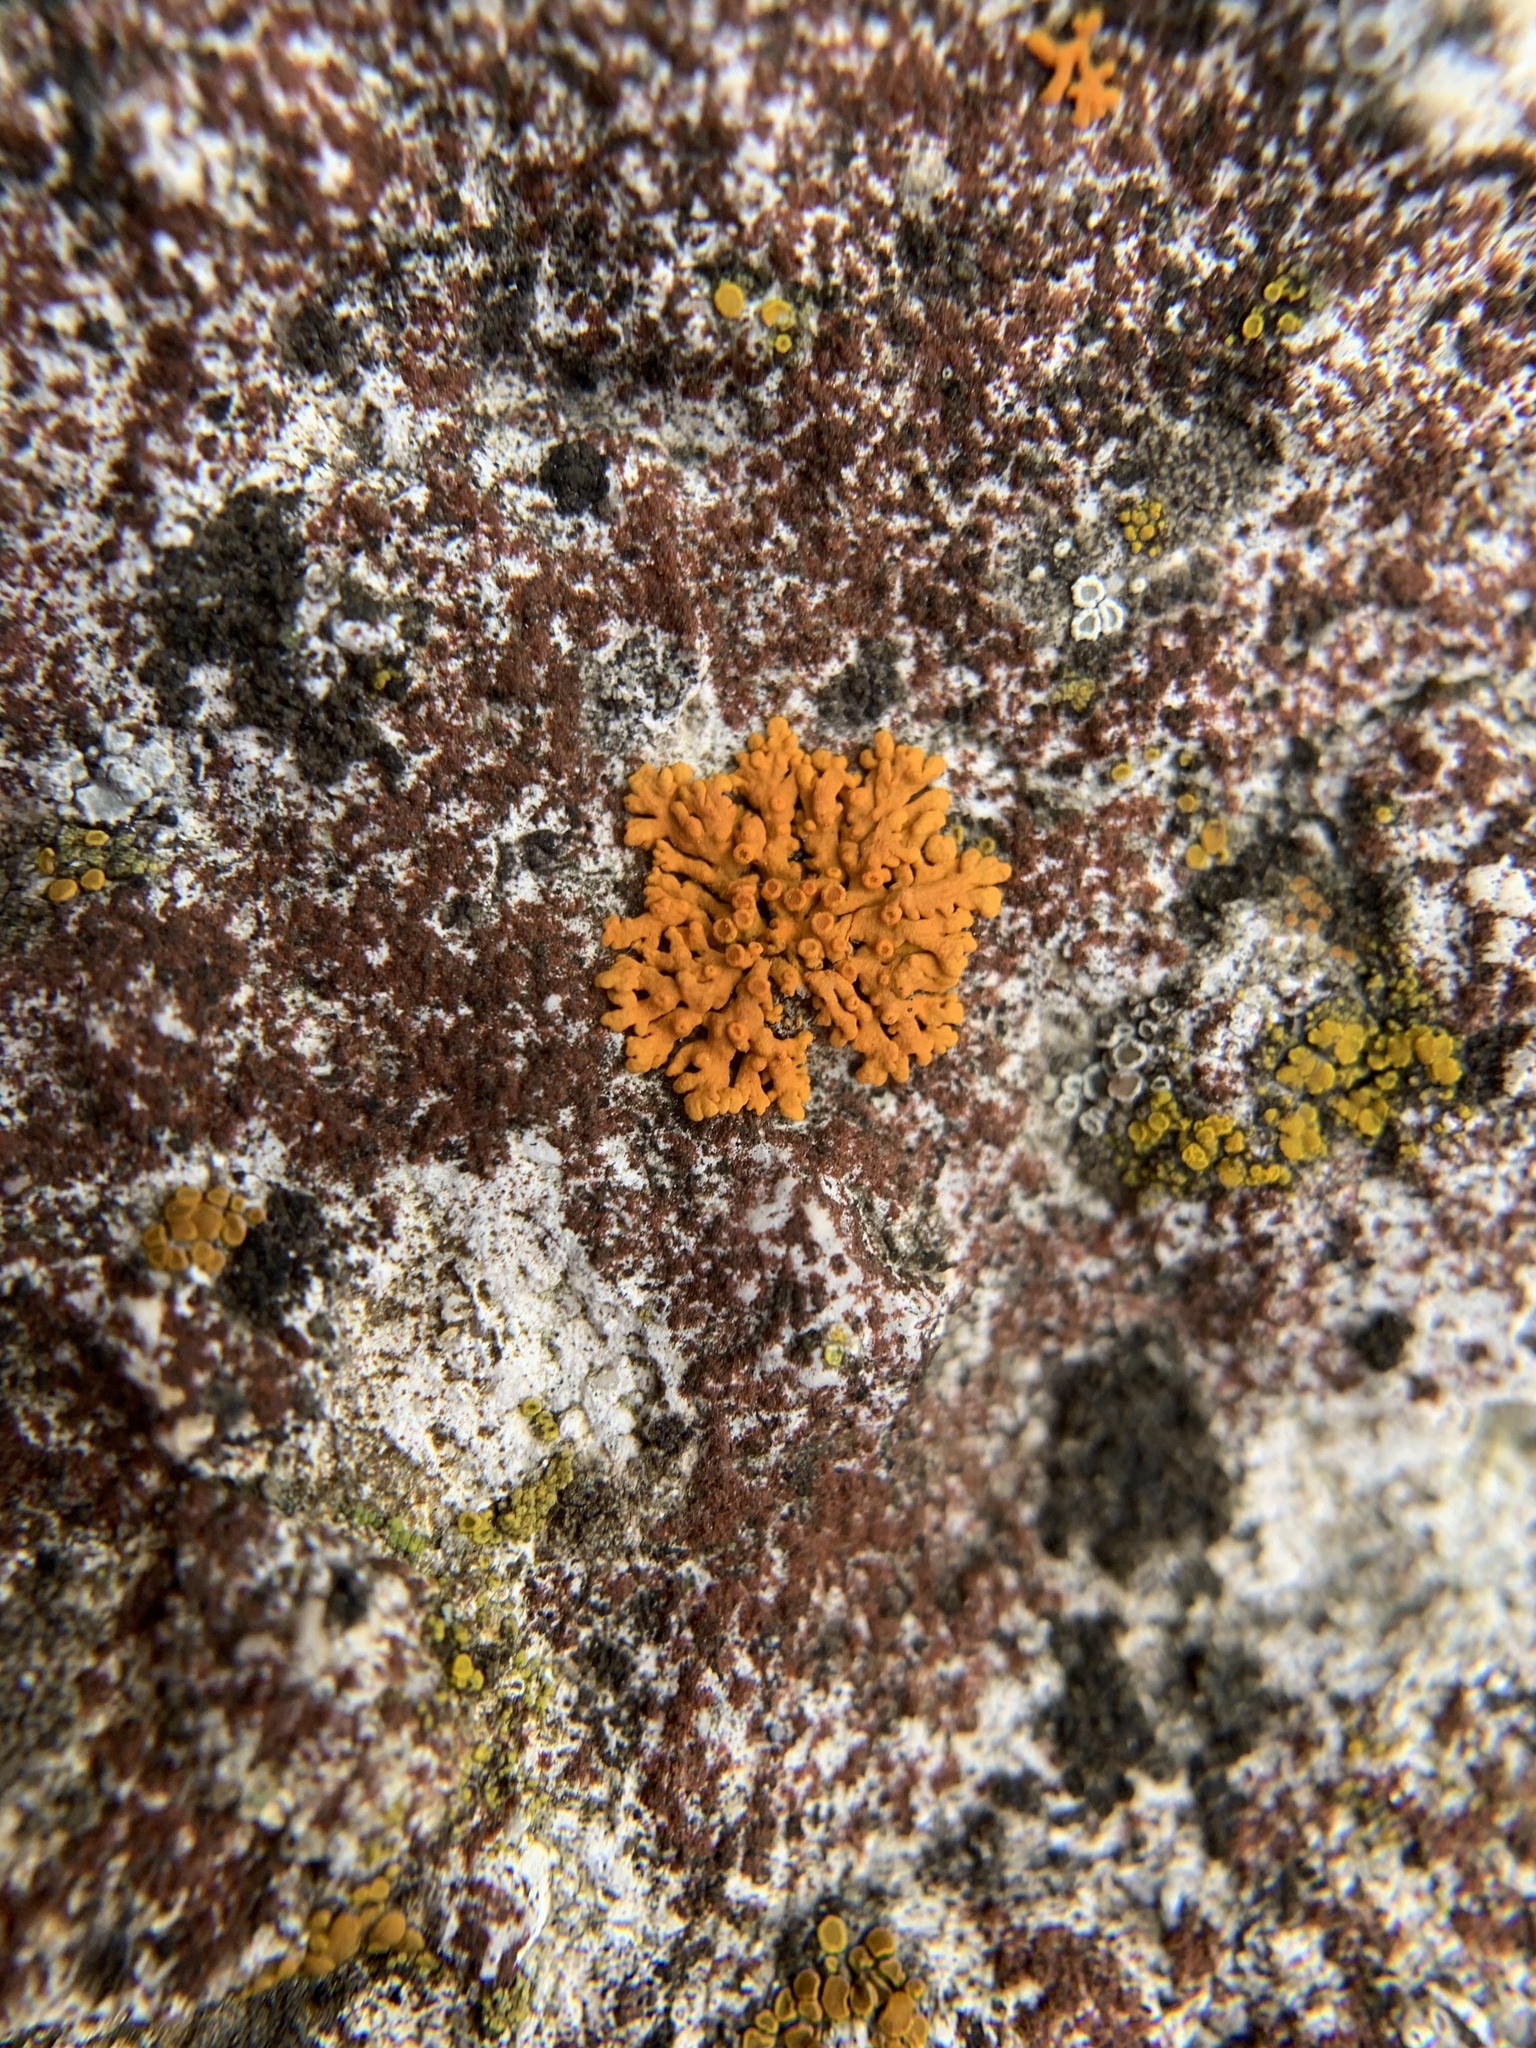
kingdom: Fungi
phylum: Ascomycota
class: Lecanoromycetes
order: Teloschistales
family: Teloschistaceae
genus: Xanthoria
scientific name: Xanthoria elegans
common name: Elegant sunburst lichen
